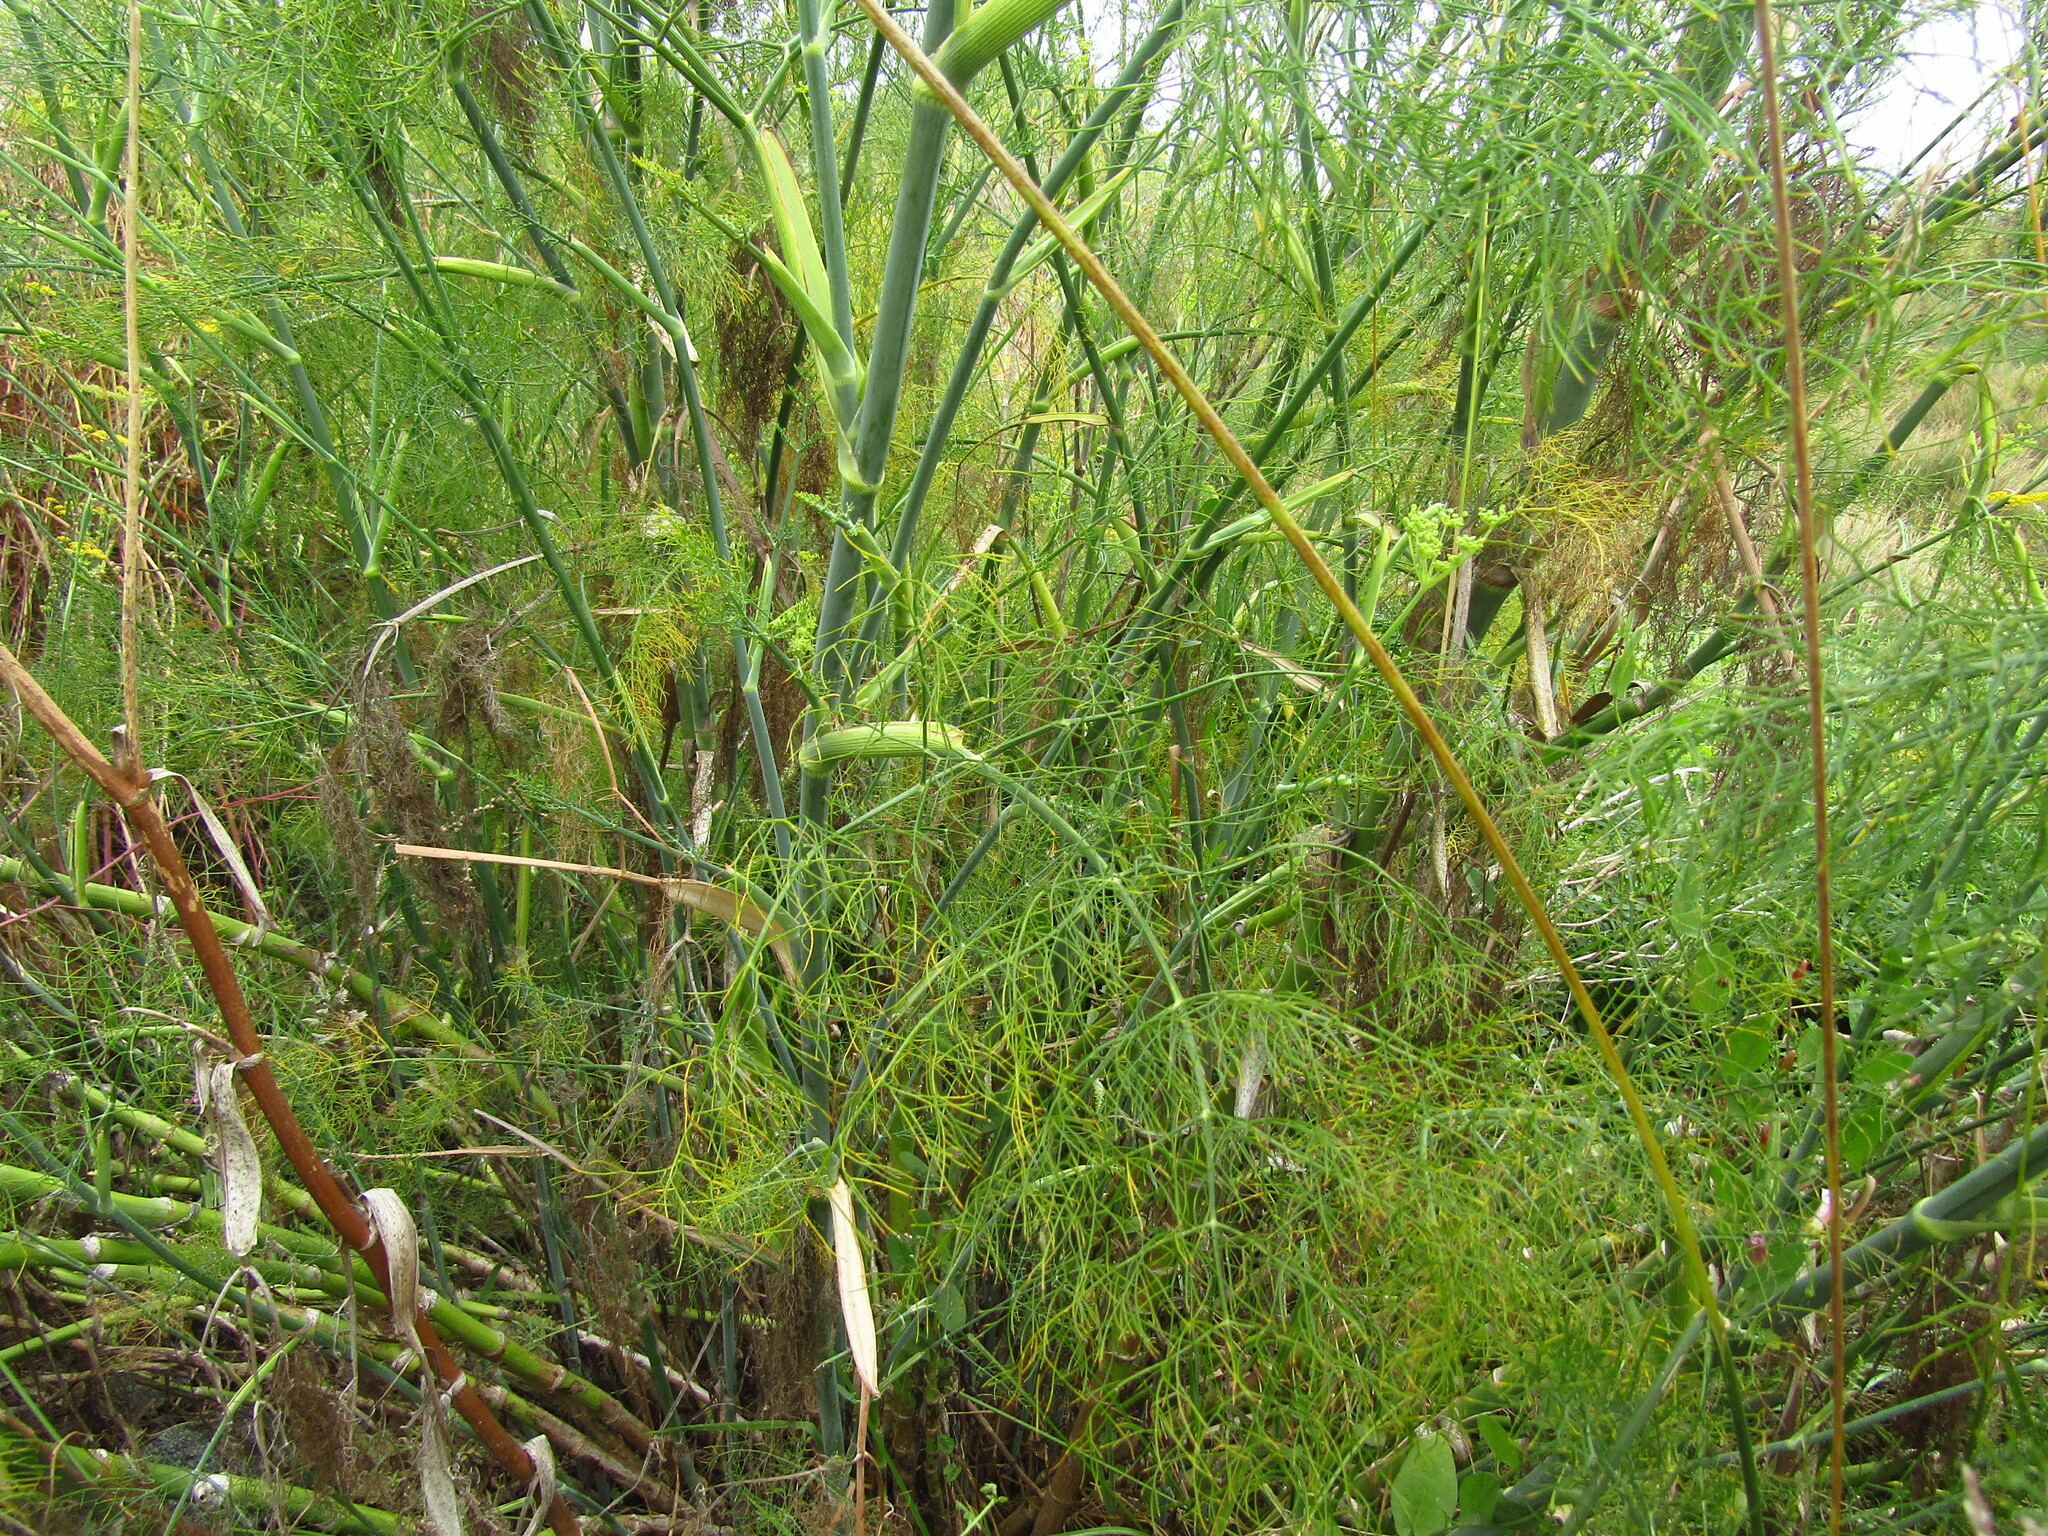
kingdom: Plantae
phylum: Tracheophyta
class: Magnoliopsida
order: Apiales
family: Apiaceae
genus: Foeniculum
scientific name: Foeniculum vulgare
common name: Fennel
